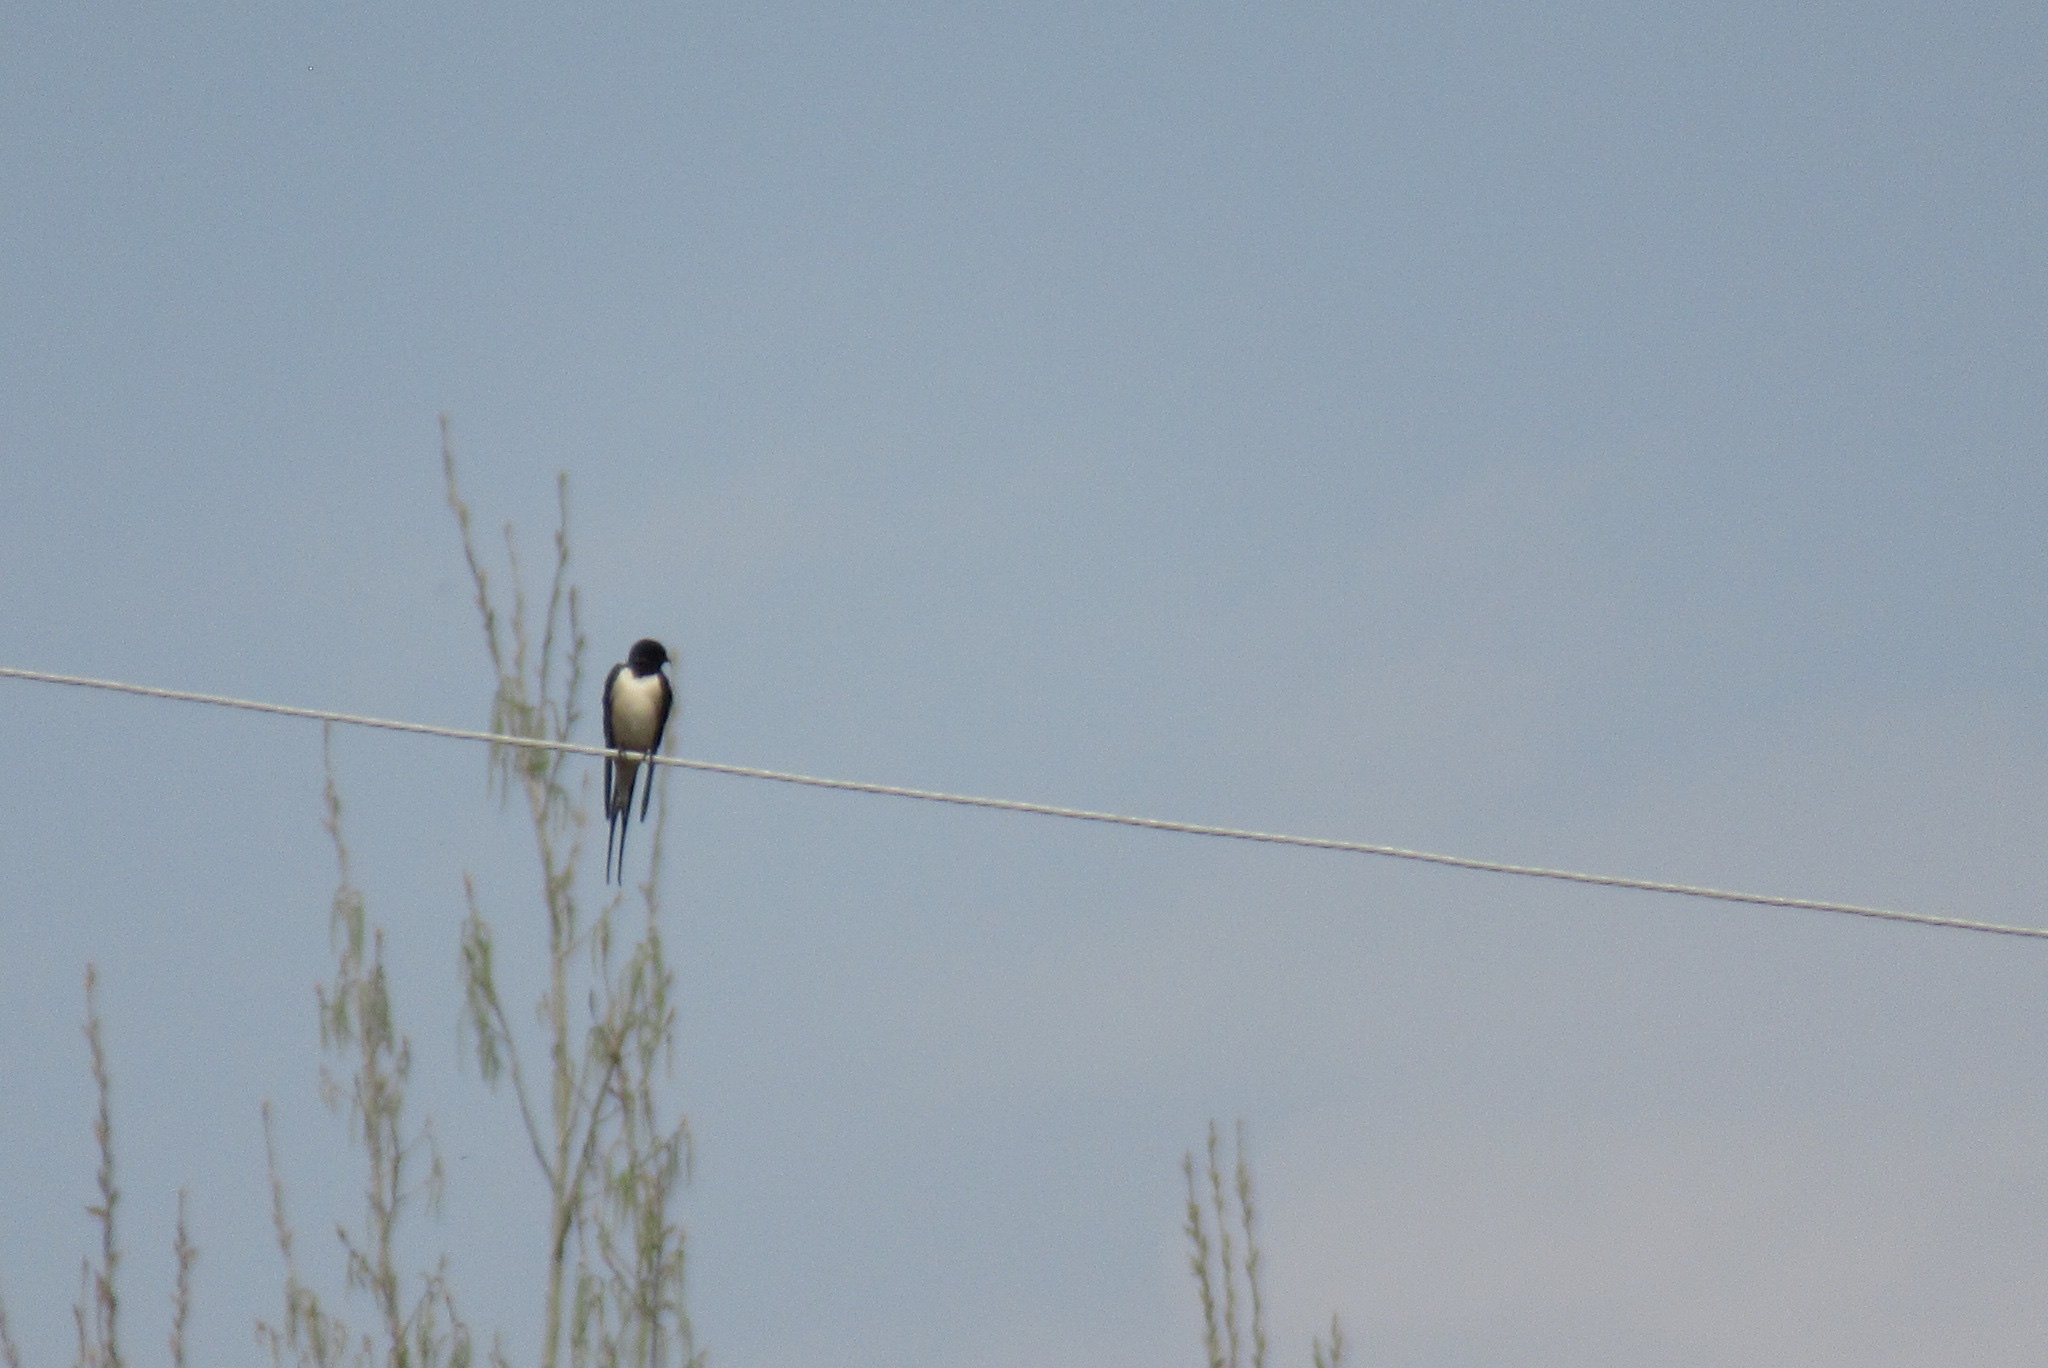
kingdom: Animalia
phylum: Chordata
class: Aves
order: Passeriformes
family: Hirundinidae
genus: Hirundo
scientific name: Hirundo rustica
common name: Barn swallow
